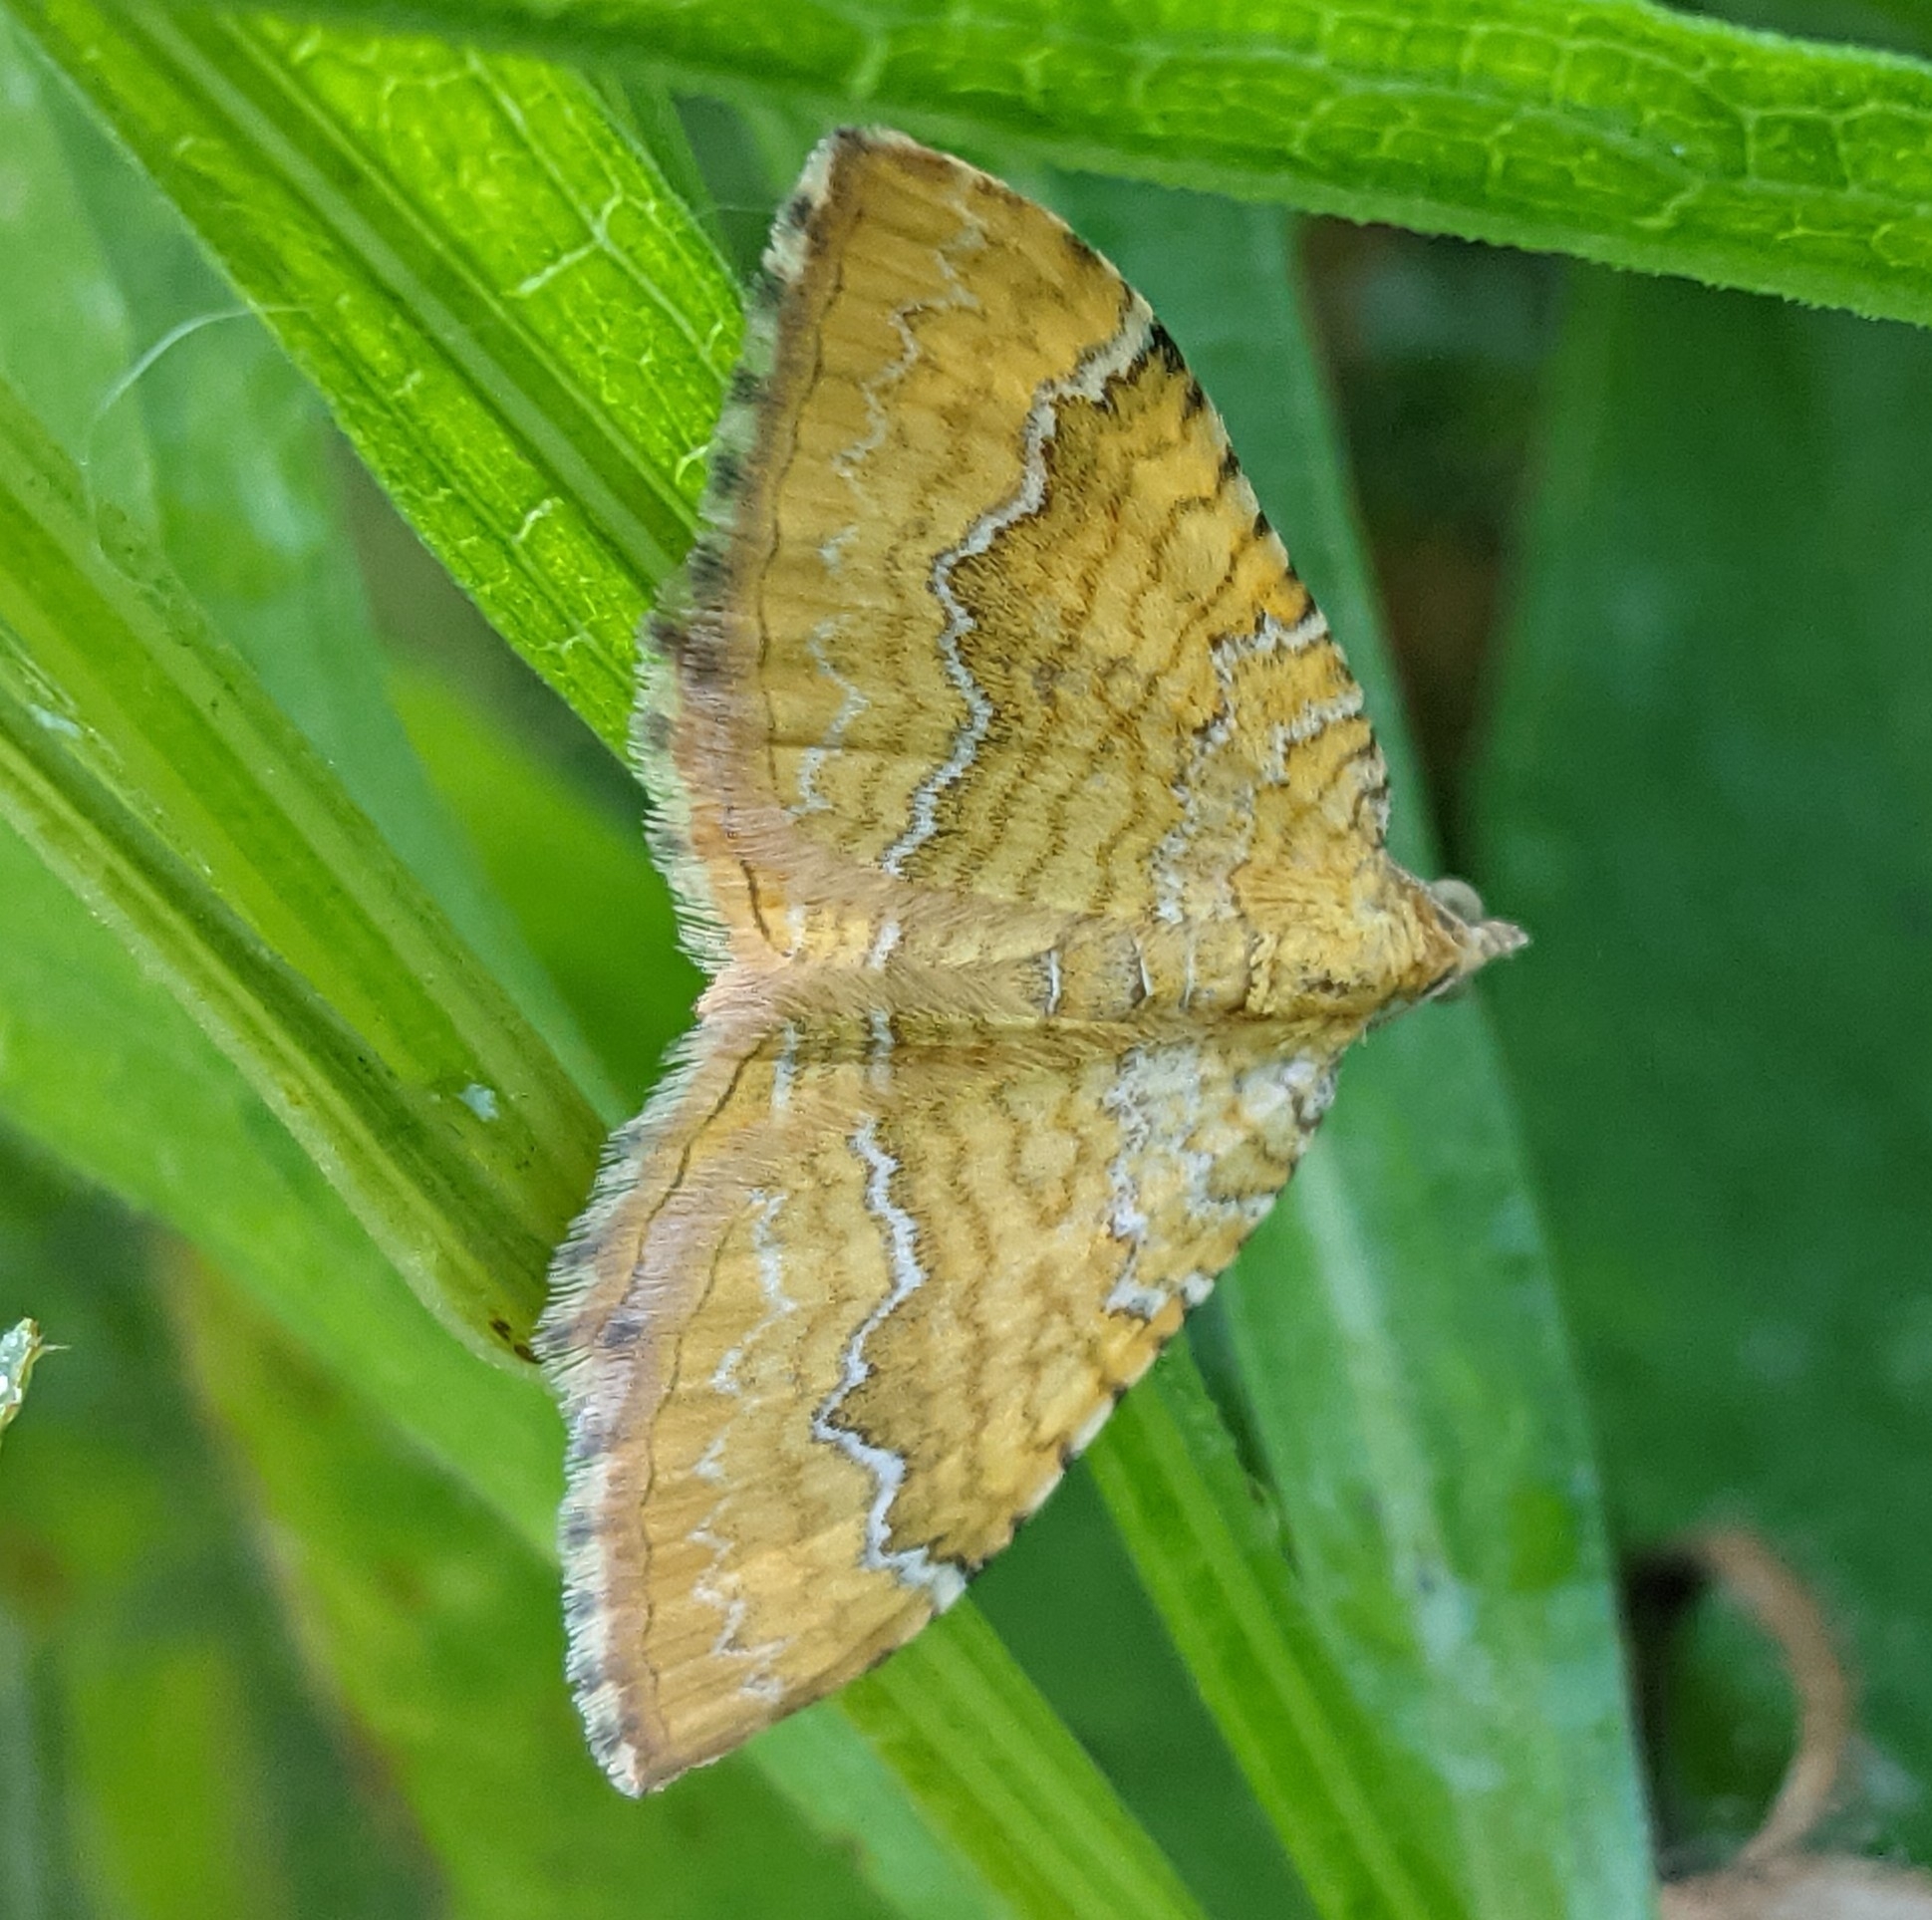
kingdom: Animalia
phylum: Arthropoda
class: Insecta
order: Lepidoptera
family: Geometridae
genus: Camptogramma
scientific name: Camptogramma bilineata
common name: Yellow shell
